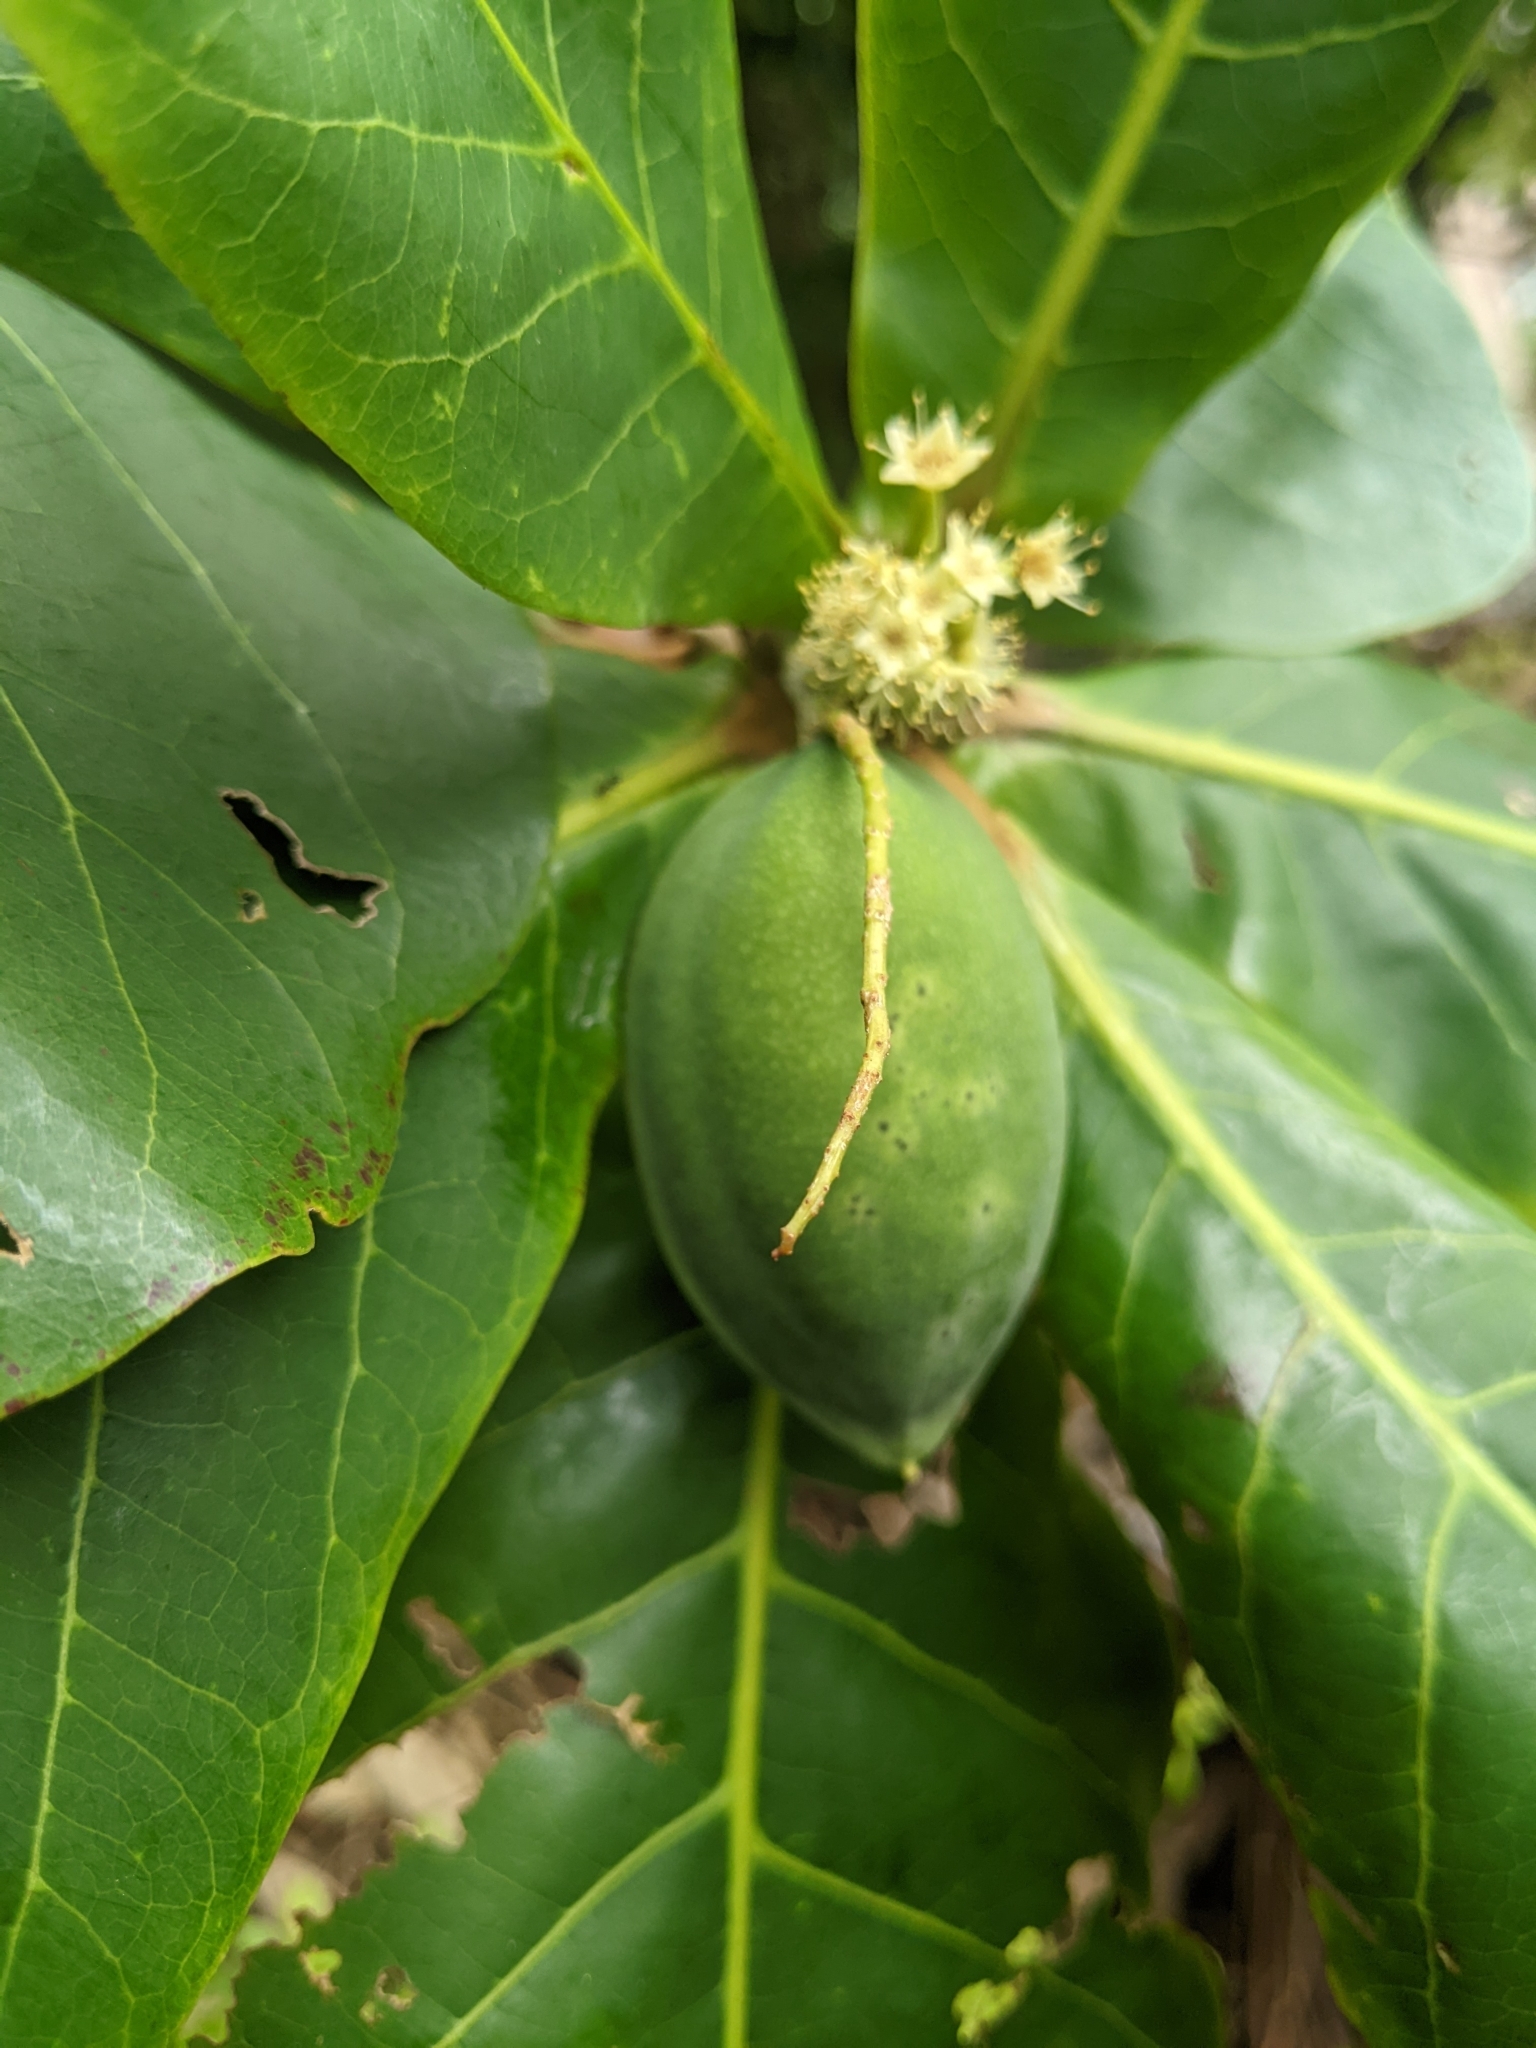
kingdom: Plantae
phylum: Tracheophyta
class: Magnoliopsida
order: Myrtales
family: Combretaceae
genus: Terminalia
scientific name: Terminalia catappa
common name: Tropical almond
